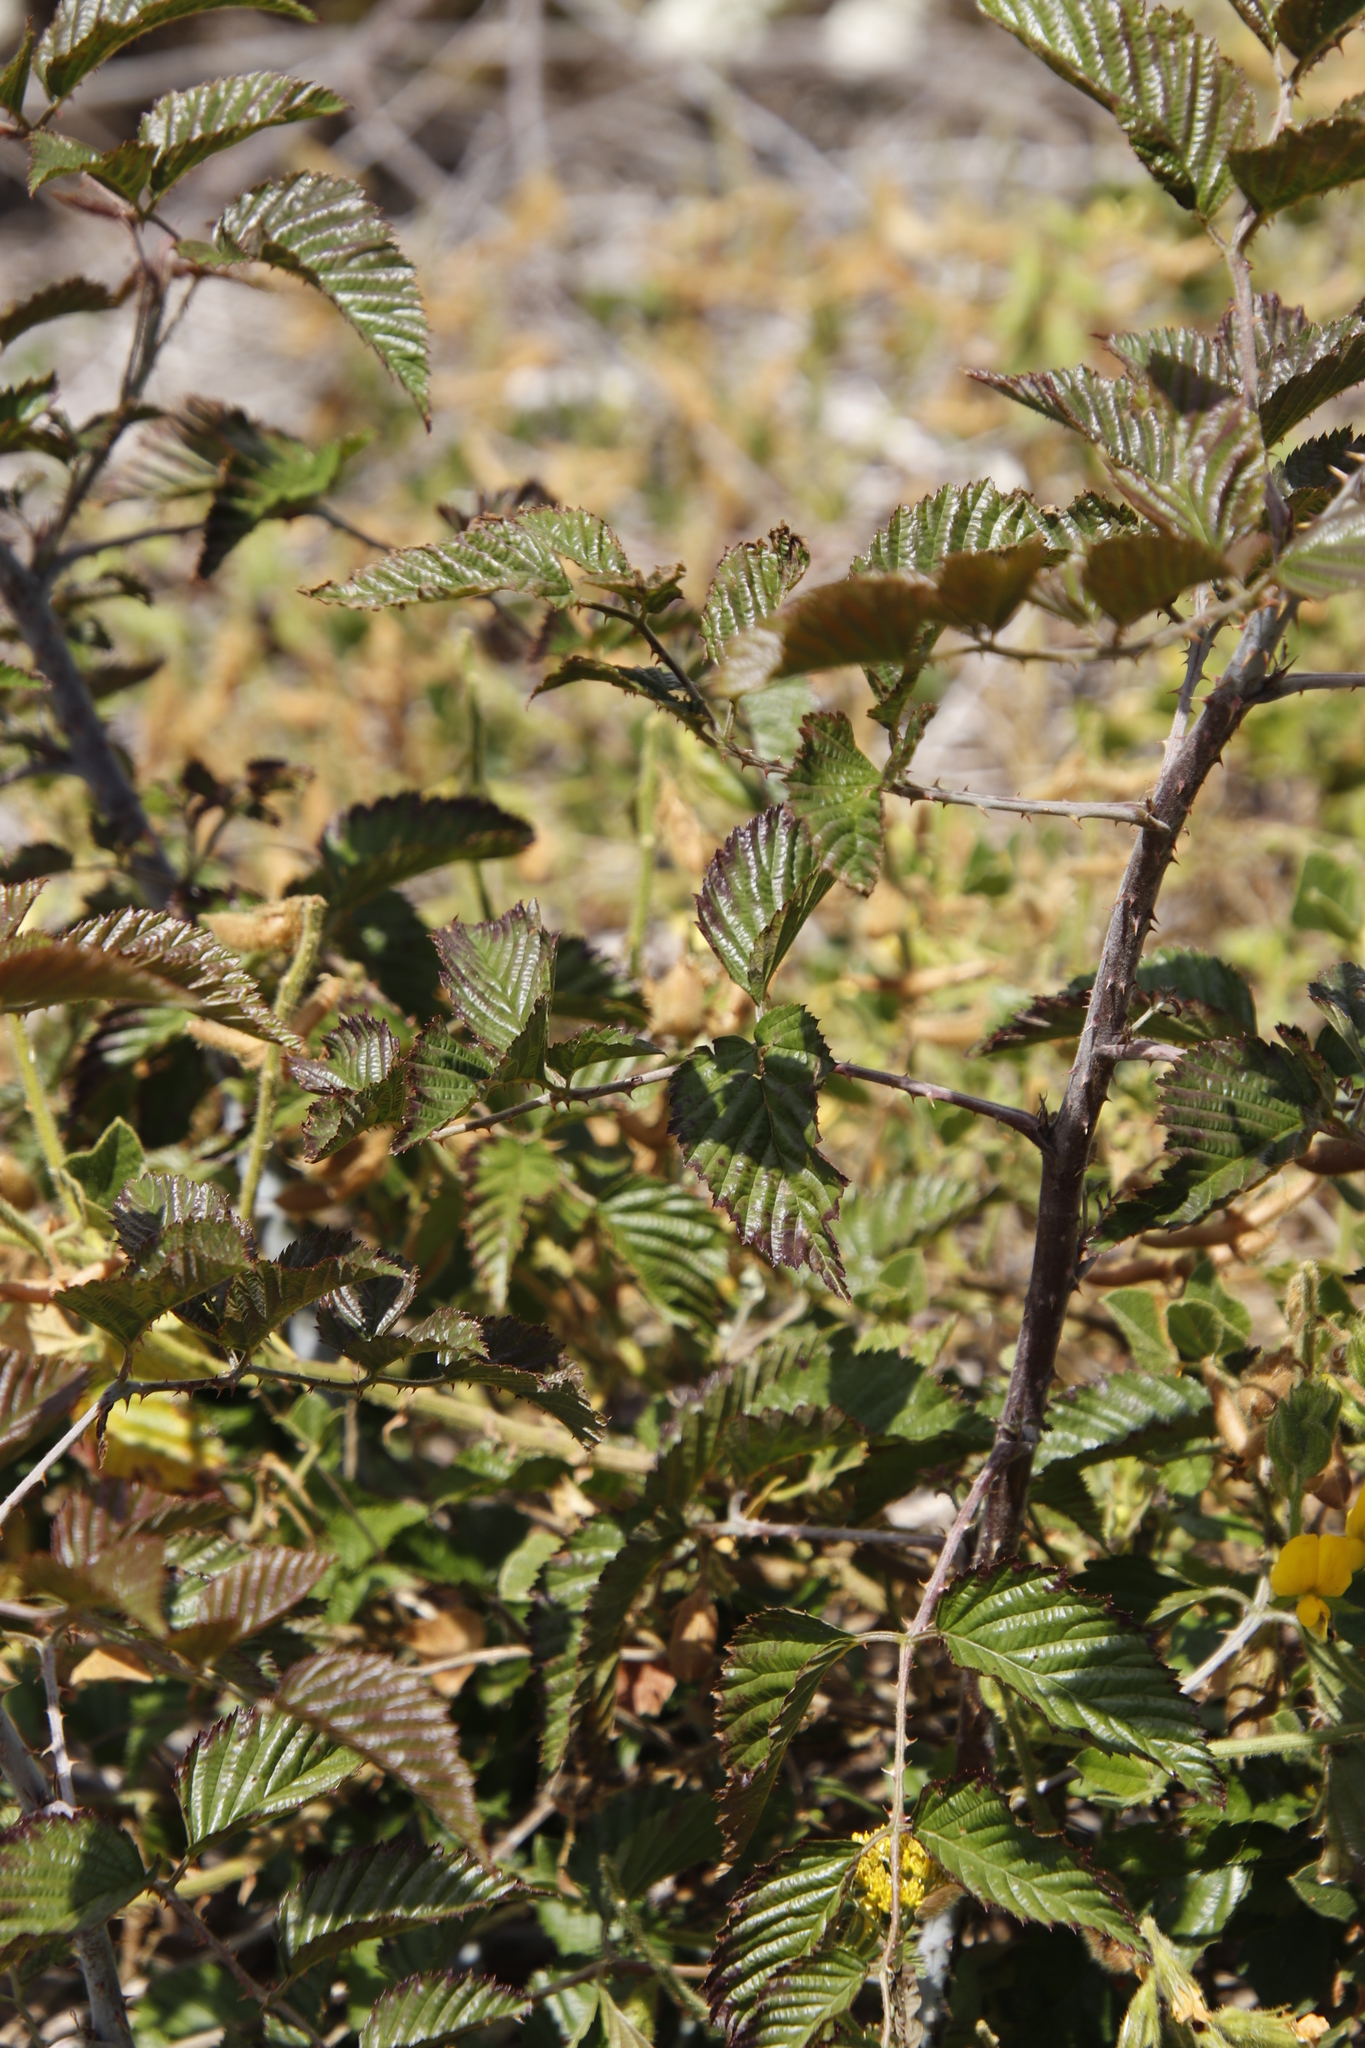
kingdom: Plantae
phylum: Tracheophyta
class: Magnoliopsida
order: Rosales
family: Rosaceae
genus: Rubus
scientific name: Rubus pinnatus
